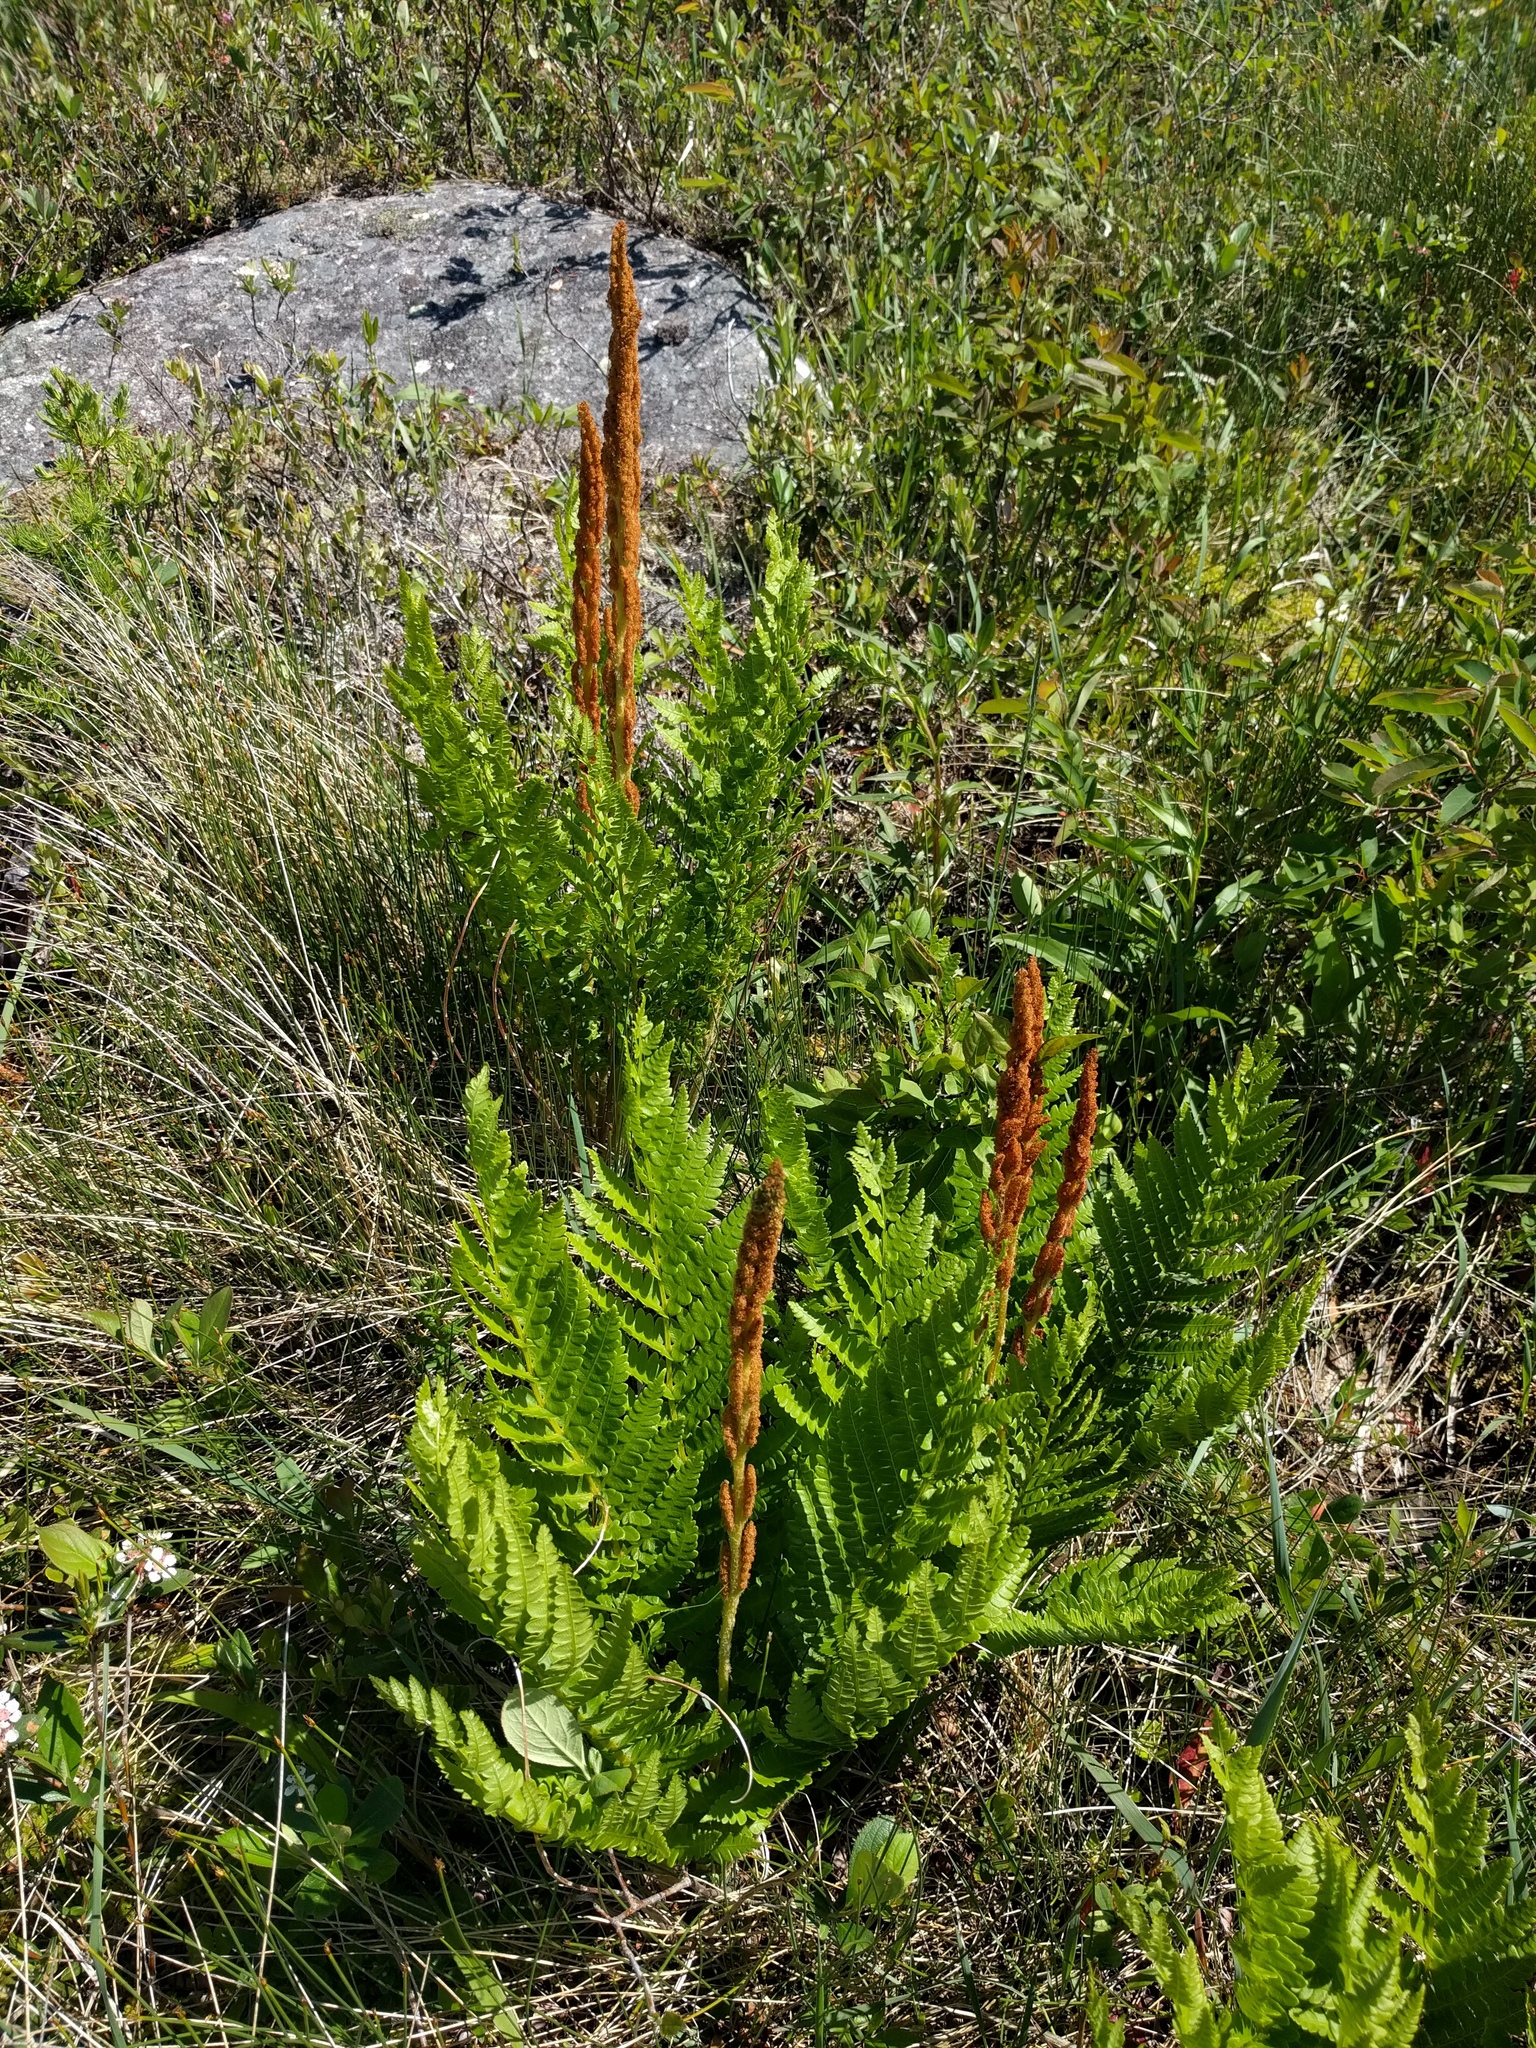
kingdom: Plantae
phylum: Tracheophyta
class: Polypodiopsida
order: Osmundales
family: Osmundaceae
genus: Osmundastrum
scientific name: Osmundastrum cinnamomeum
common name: Cinnamon fern
